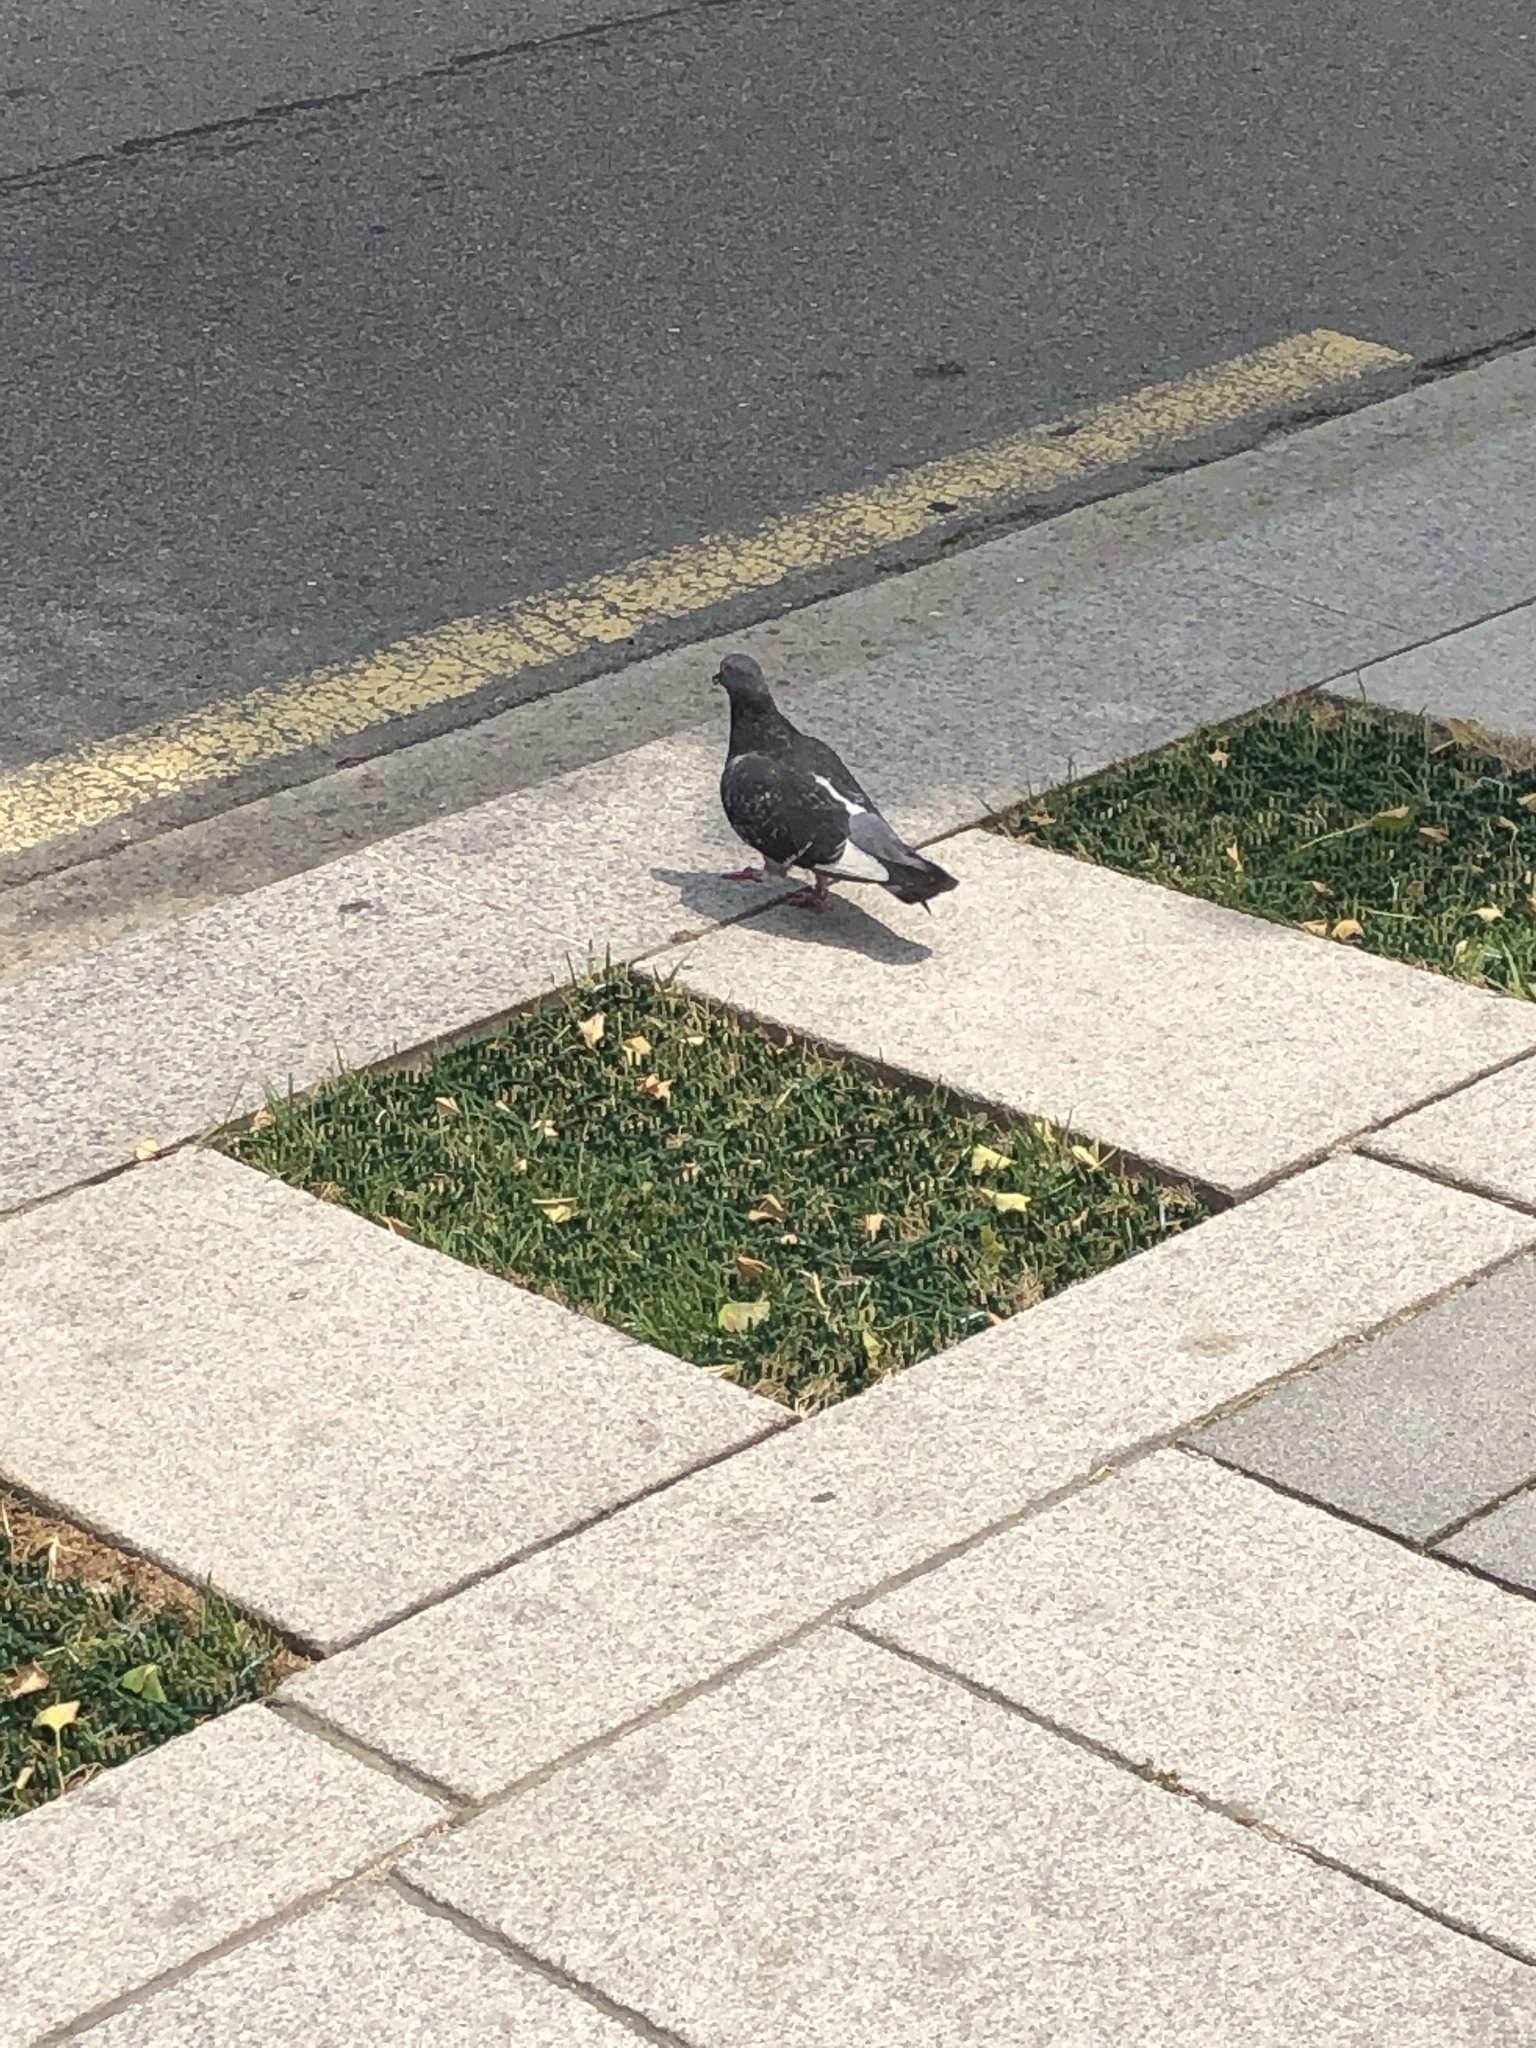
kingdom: Animalia
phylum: Chordata
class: Aves
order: Columbiformes
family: Columbidae
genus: Columba
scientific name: Columba livia
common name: Rock pigeon
